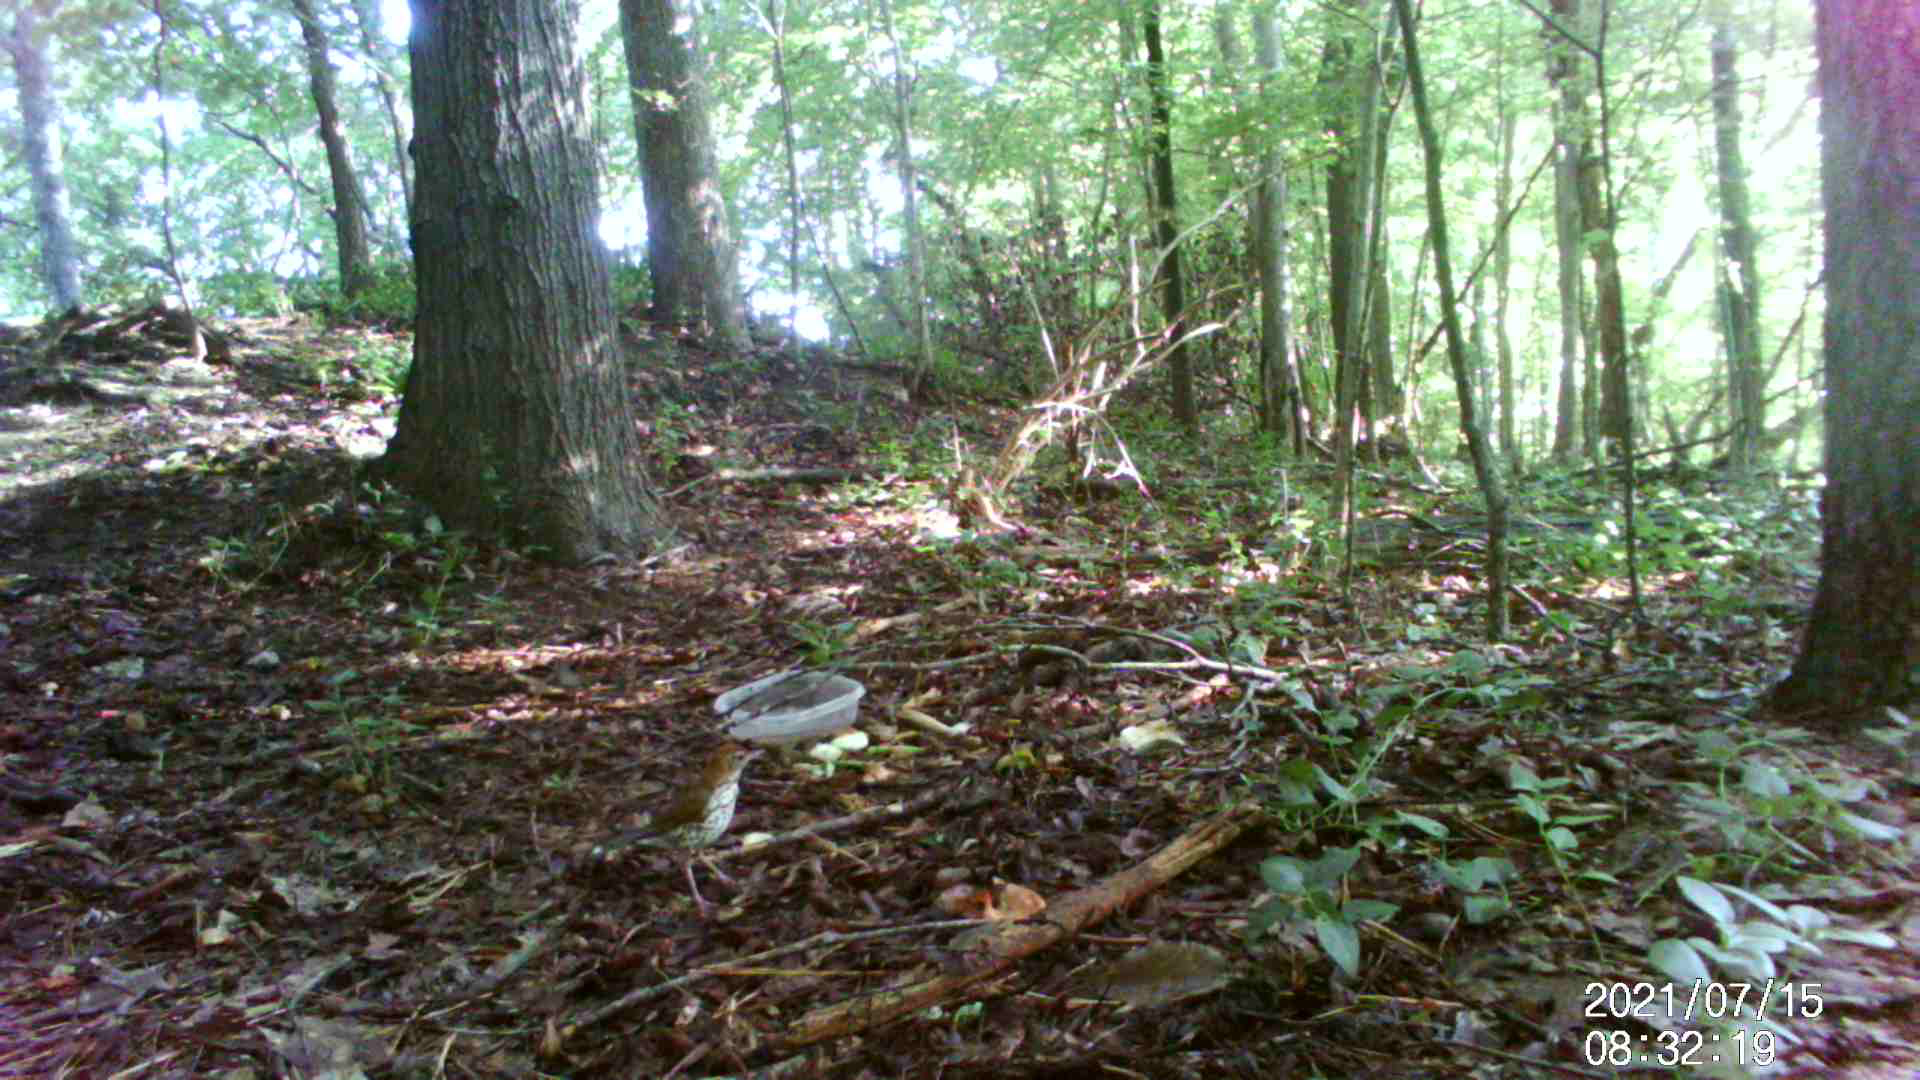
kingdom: Animalia
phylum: Chordata
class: Aves
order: Passeriformes
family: Turdidae
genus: Hylocichla
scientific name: Hylocichla mustelina
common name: Wood thrush
